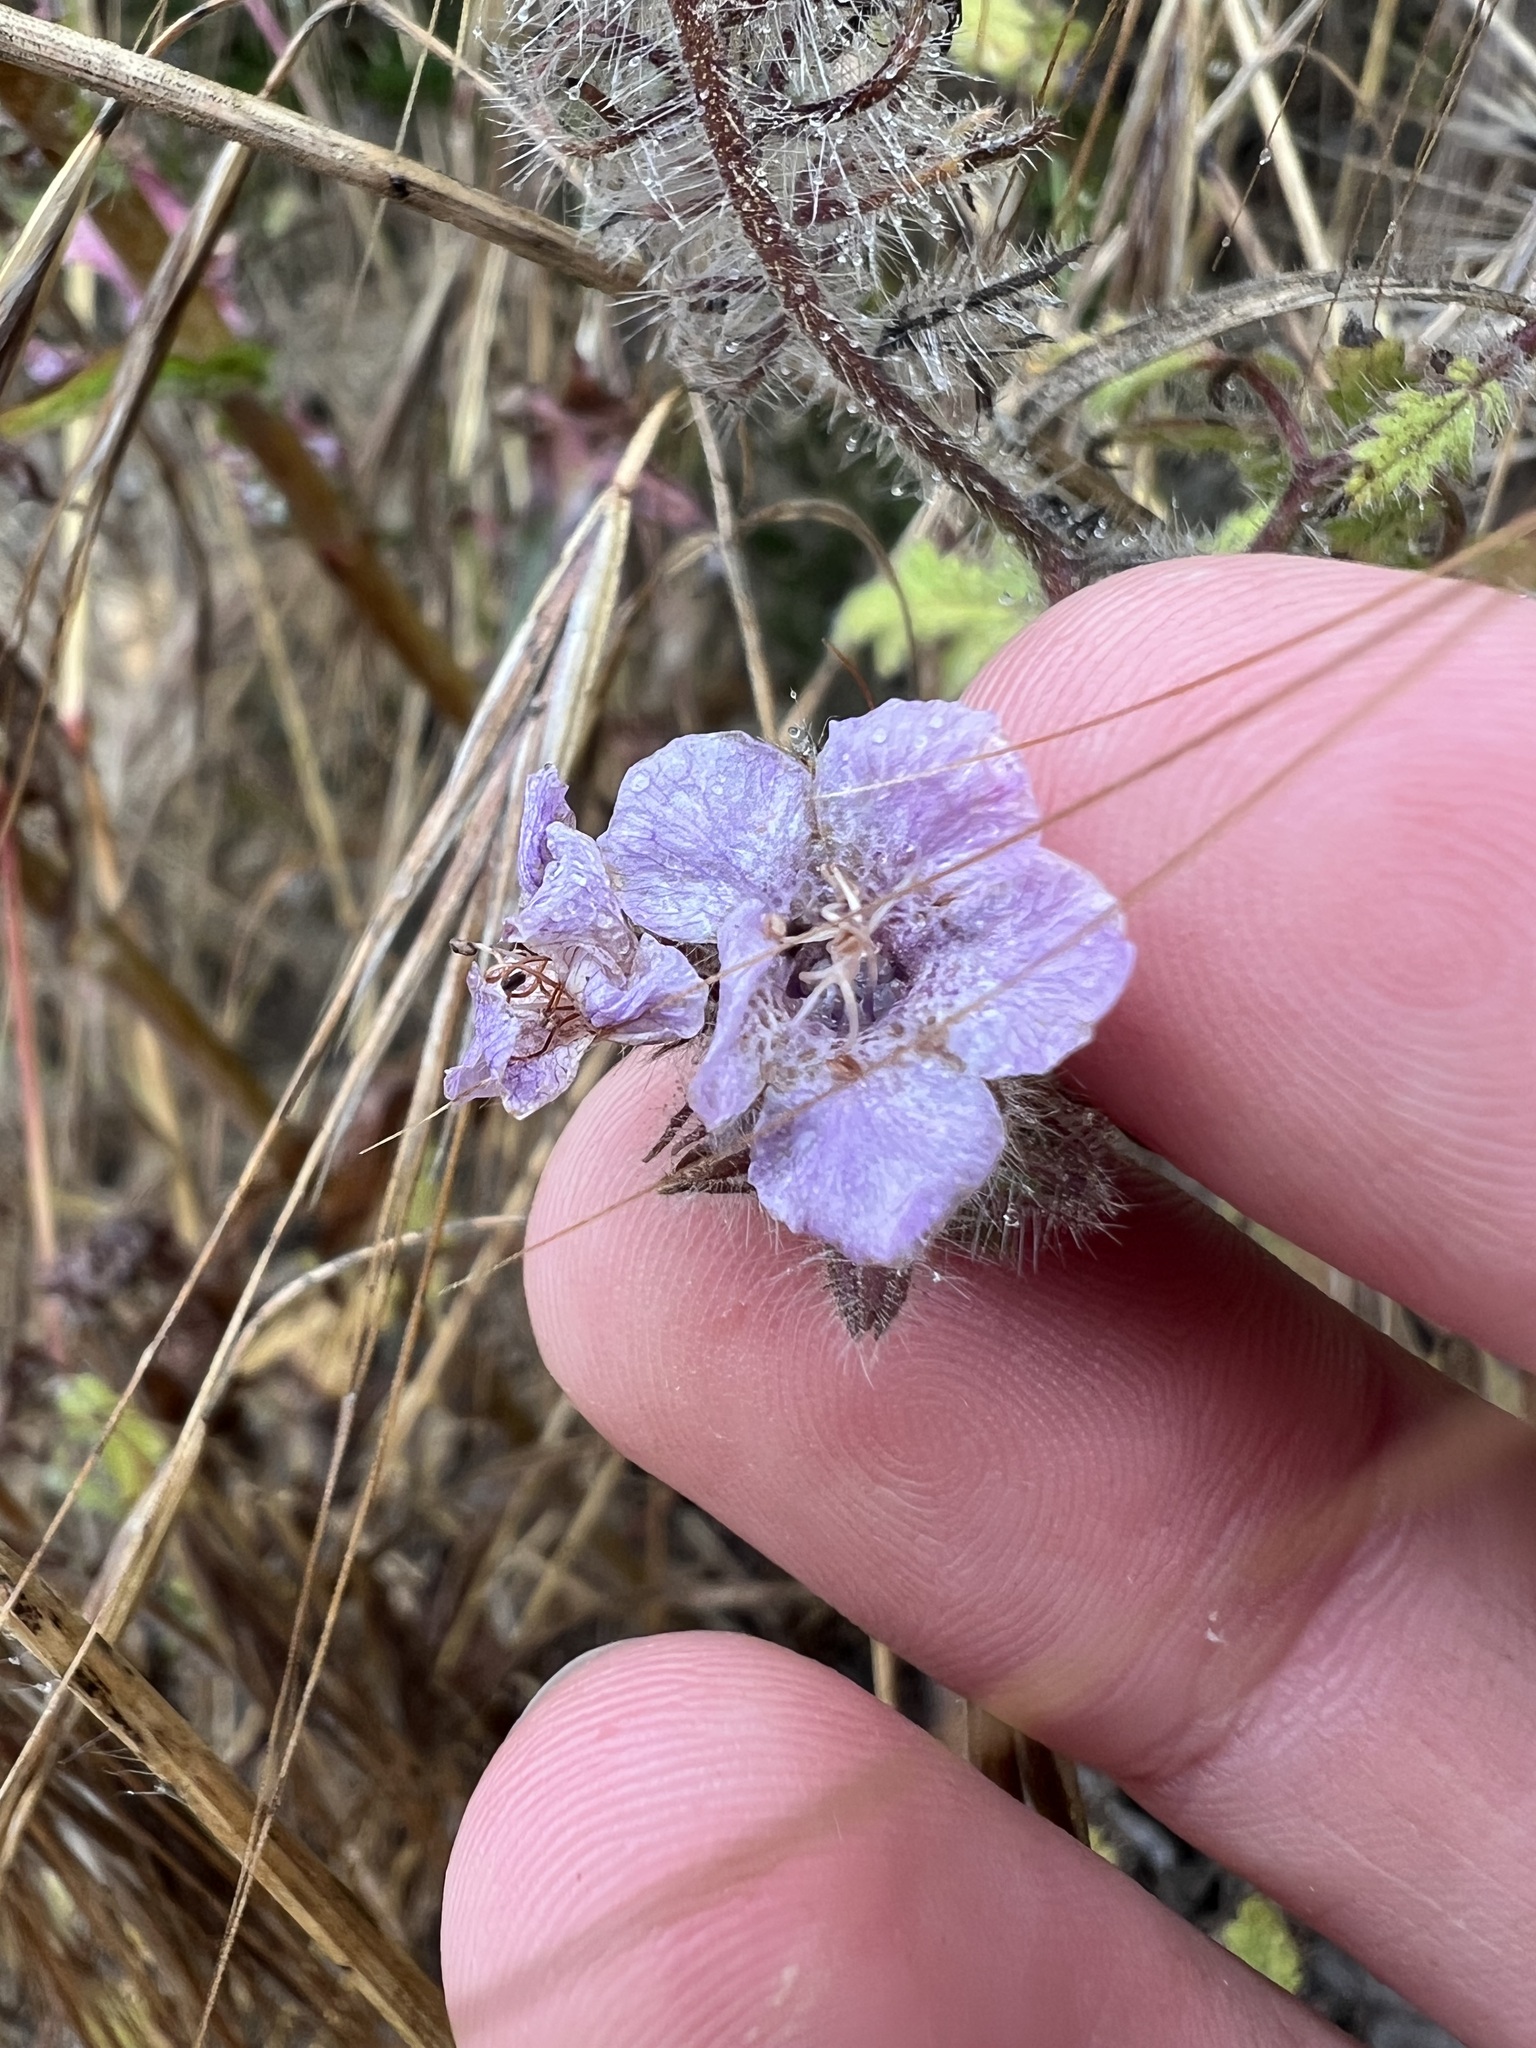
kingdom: Plantae
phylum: Tracheophyta
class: Magnoliopsida
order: Boraginales
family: Hydrophyllaceae
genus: Phacelia
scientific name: Phacelia cicutaria
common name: Caterpillar phacelia
